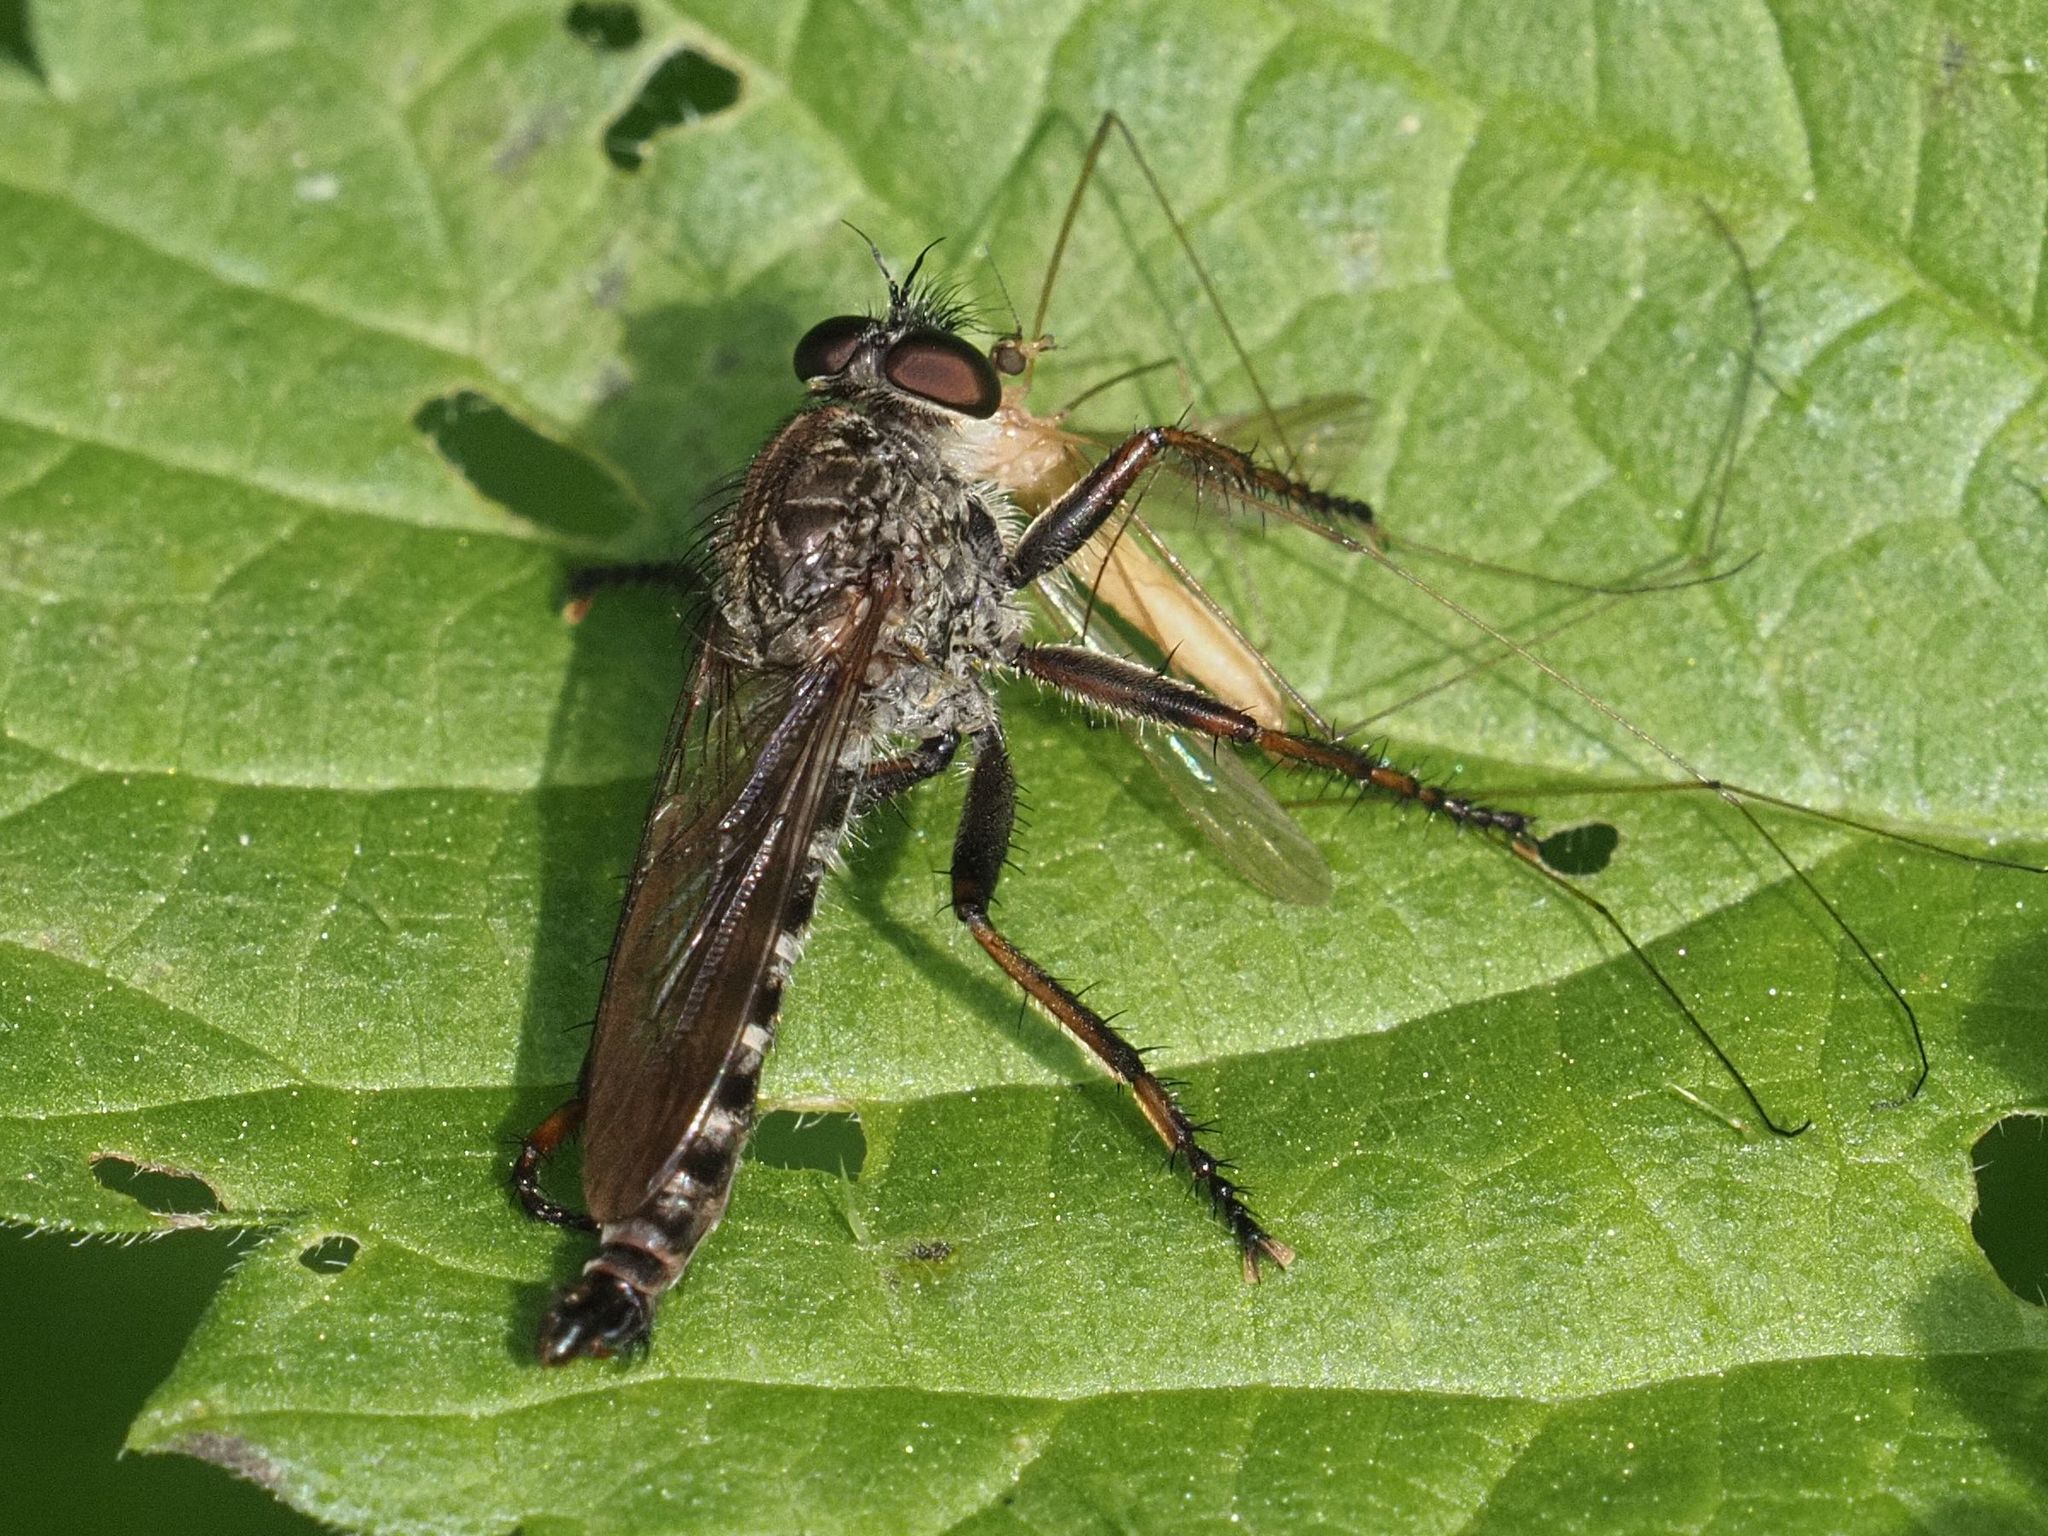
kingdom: Animalia
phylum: Arthropoda
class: Insecta
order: Diptera
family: Asilidae
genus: Machimus
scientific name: Machimus atricapillus
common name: Kite-tailed robberfly
